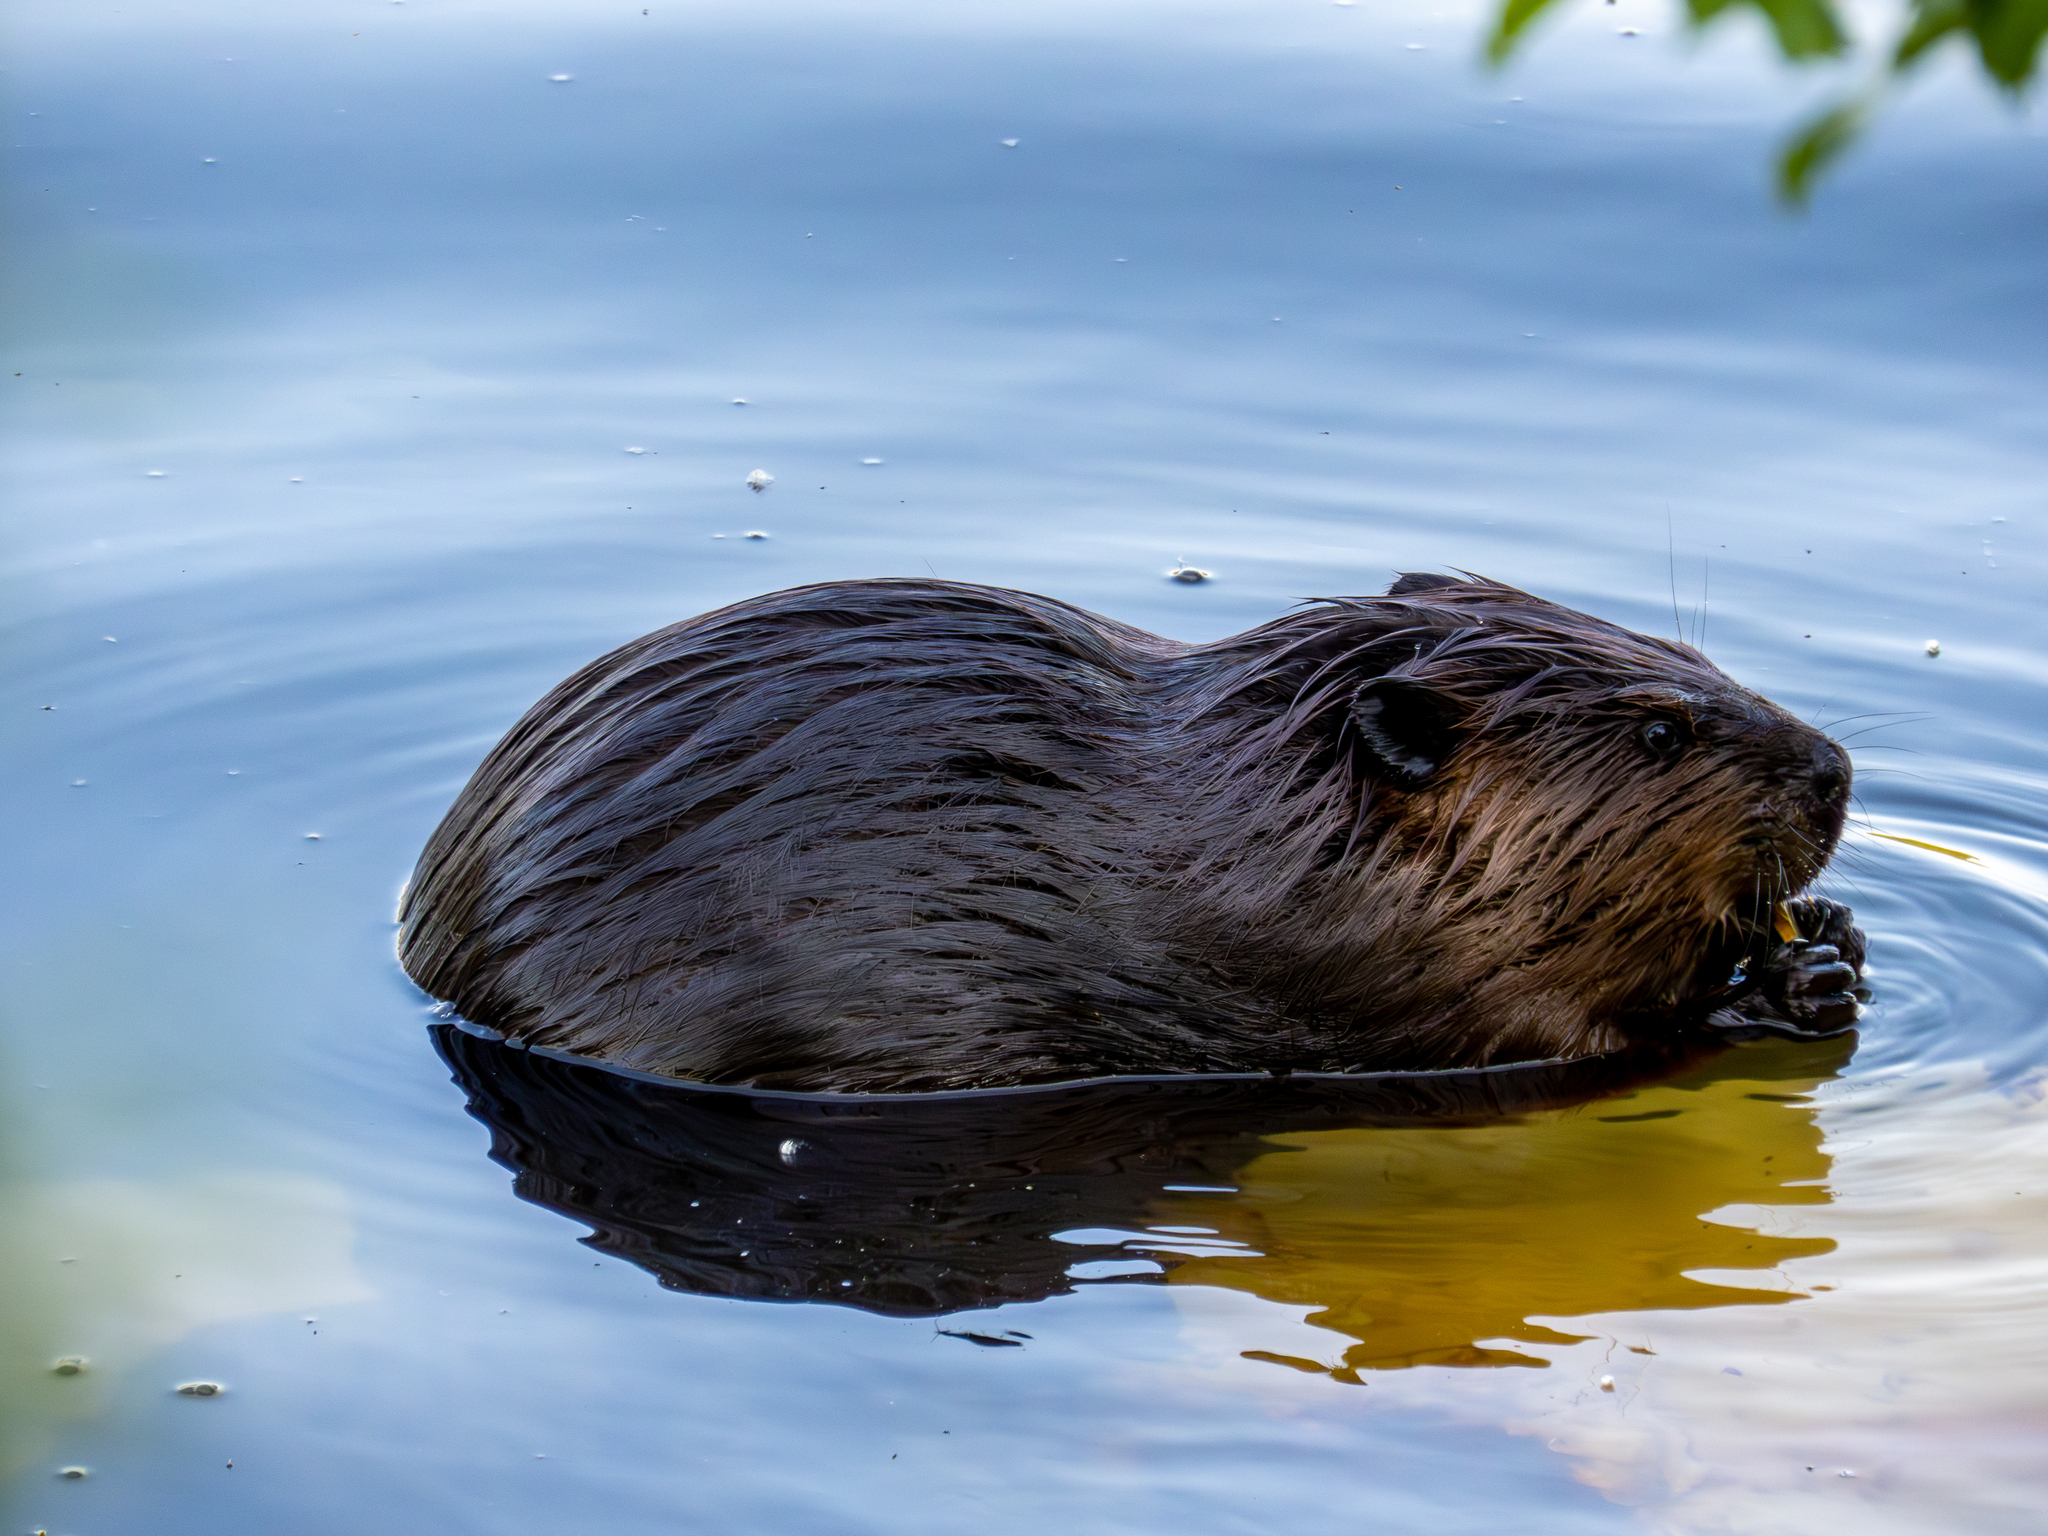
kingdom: Animalia
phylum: Chordata
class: Mammalia
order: Rodentia
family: Castoridae
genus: Castor
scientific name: Castor canadensis
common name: American beaver
